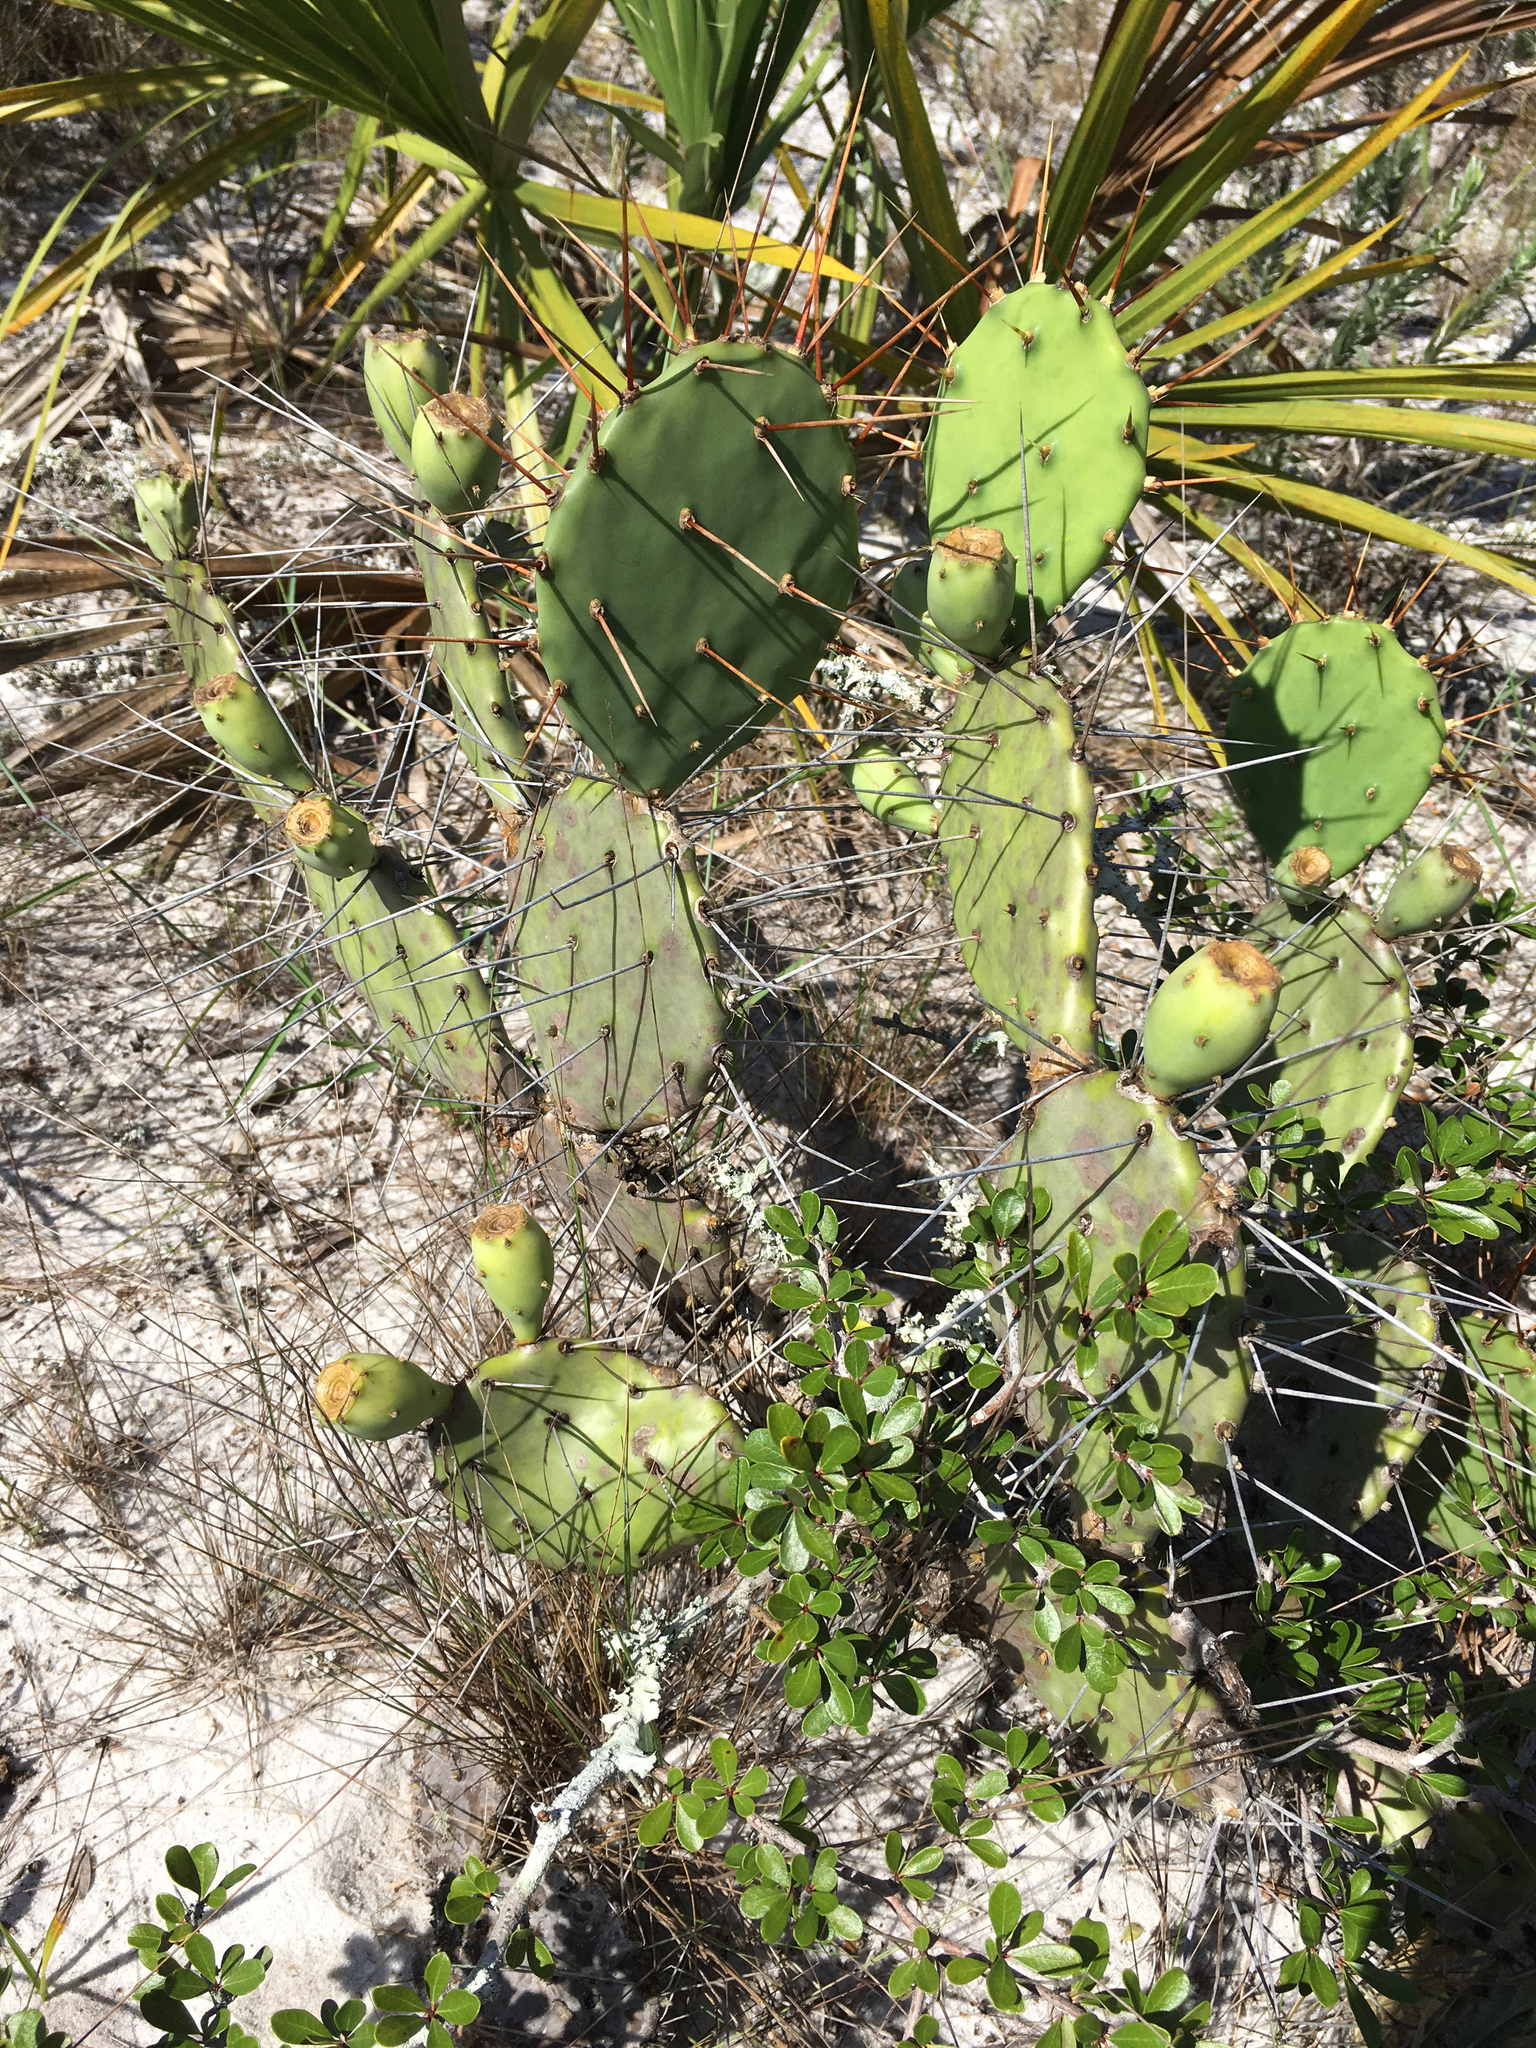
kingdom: Plantae
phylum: Tracheophyta
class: Magnoliopsida
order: Caryophyllales
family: Cactaceae
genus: Opuntia
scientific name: Opuntia austrina
